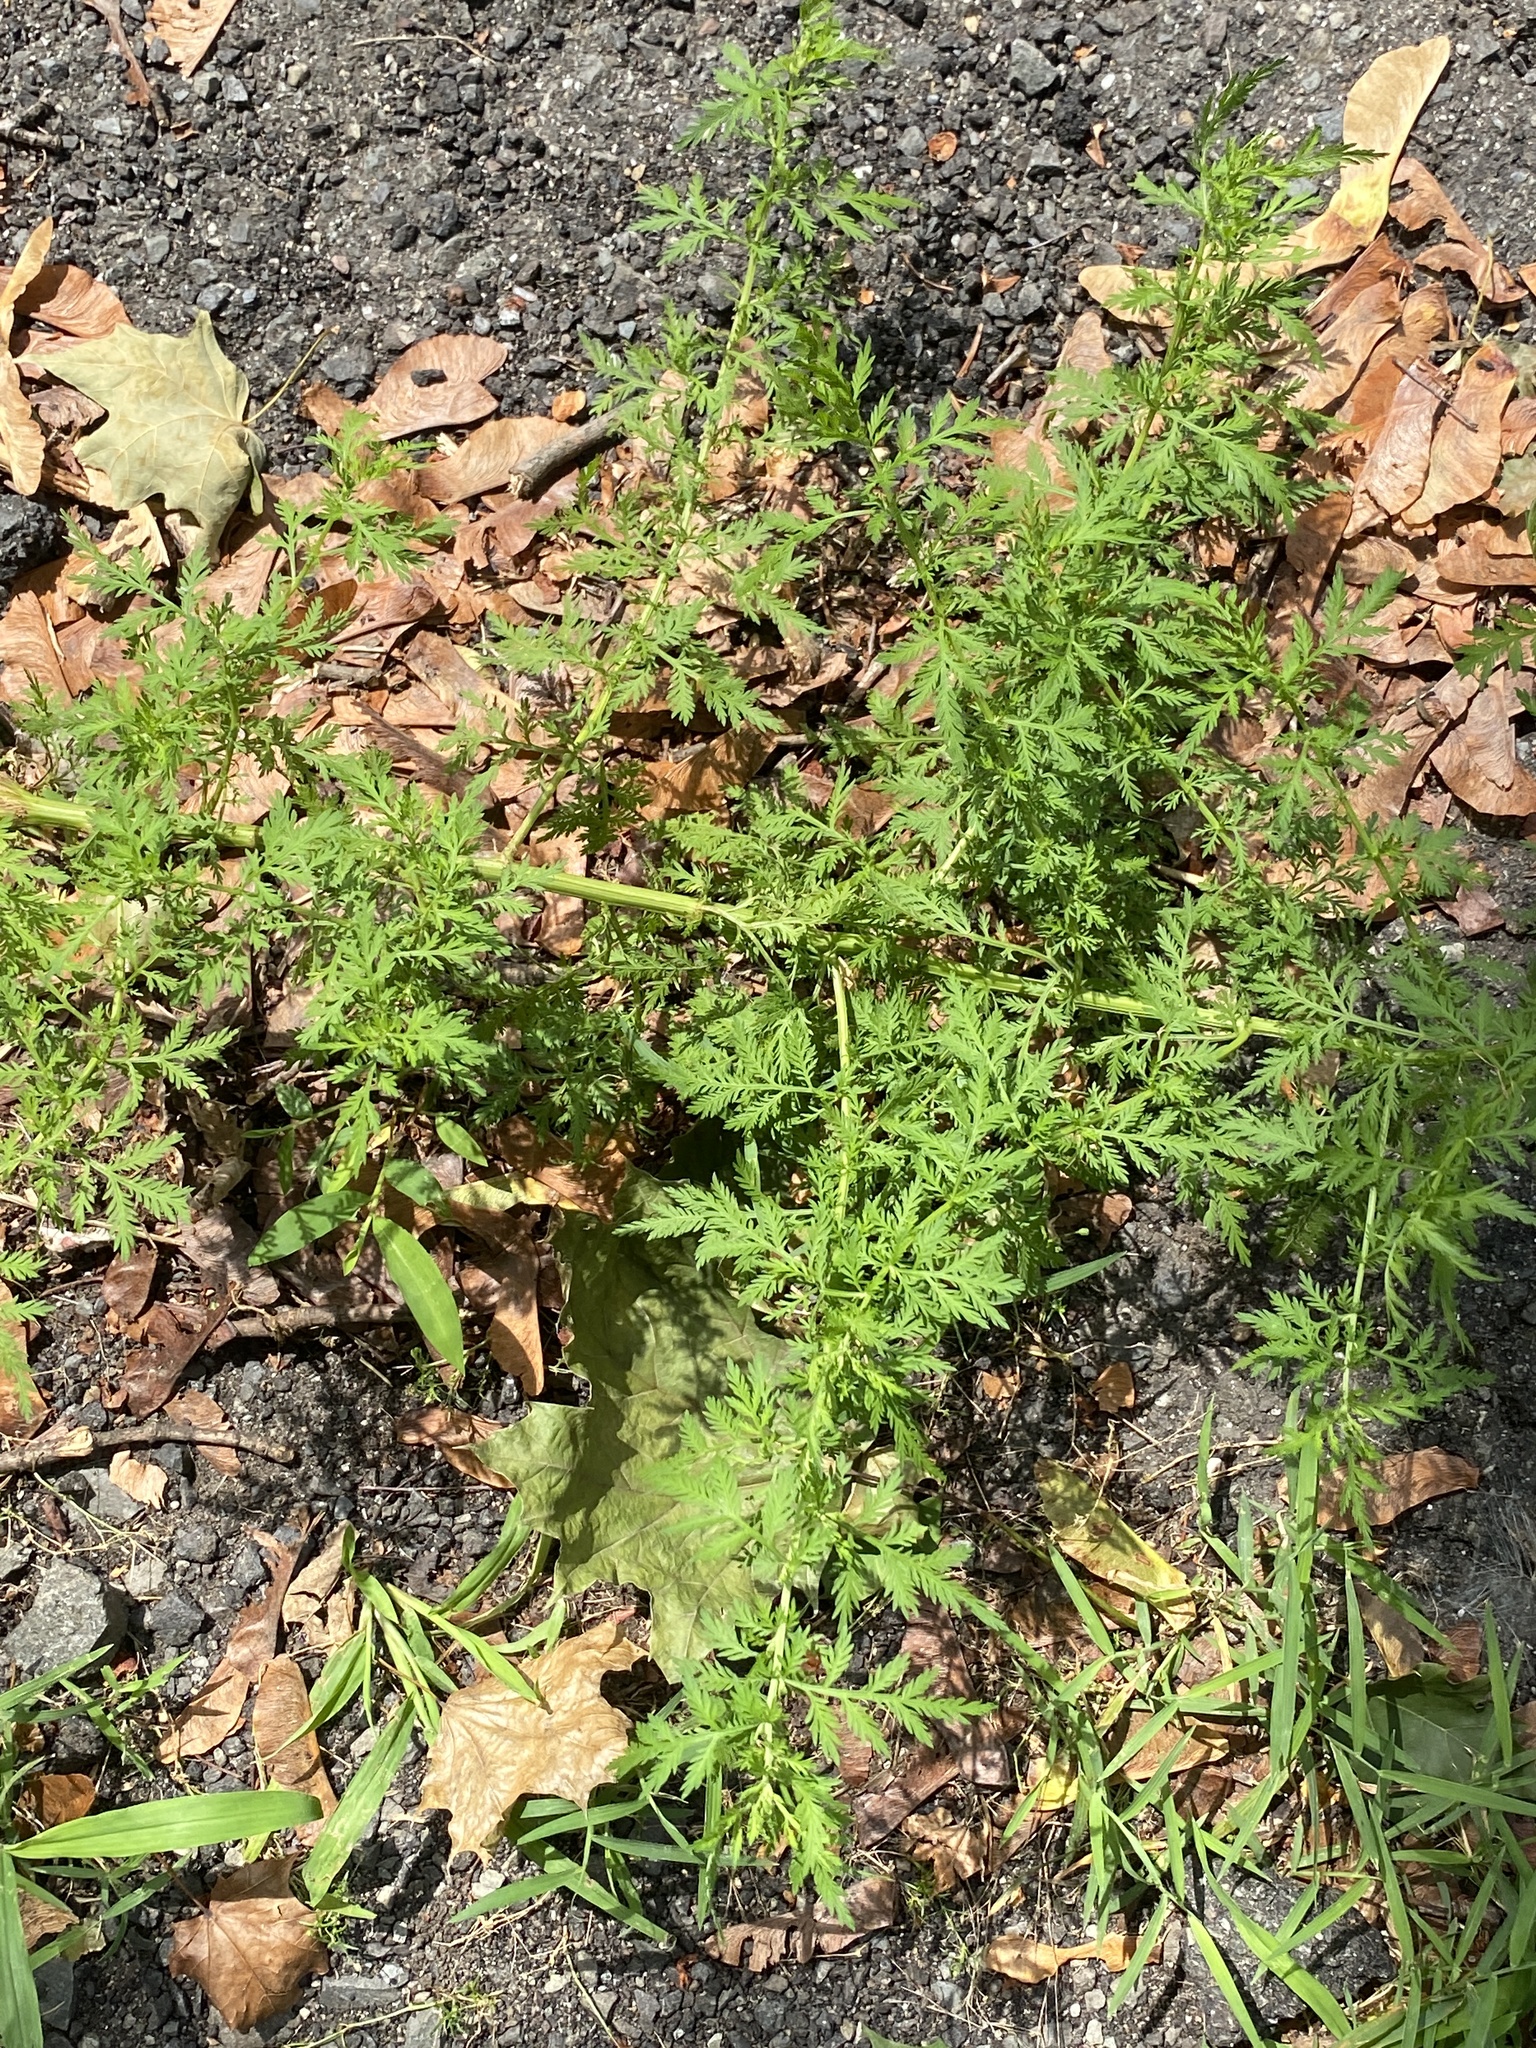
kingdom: Plantae
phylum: Tracheophyta
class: Magnoliopsida
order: Asterales
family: Asteraceae
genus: Artemisia
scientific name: Artemisia annua
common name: Sweet sagewort
